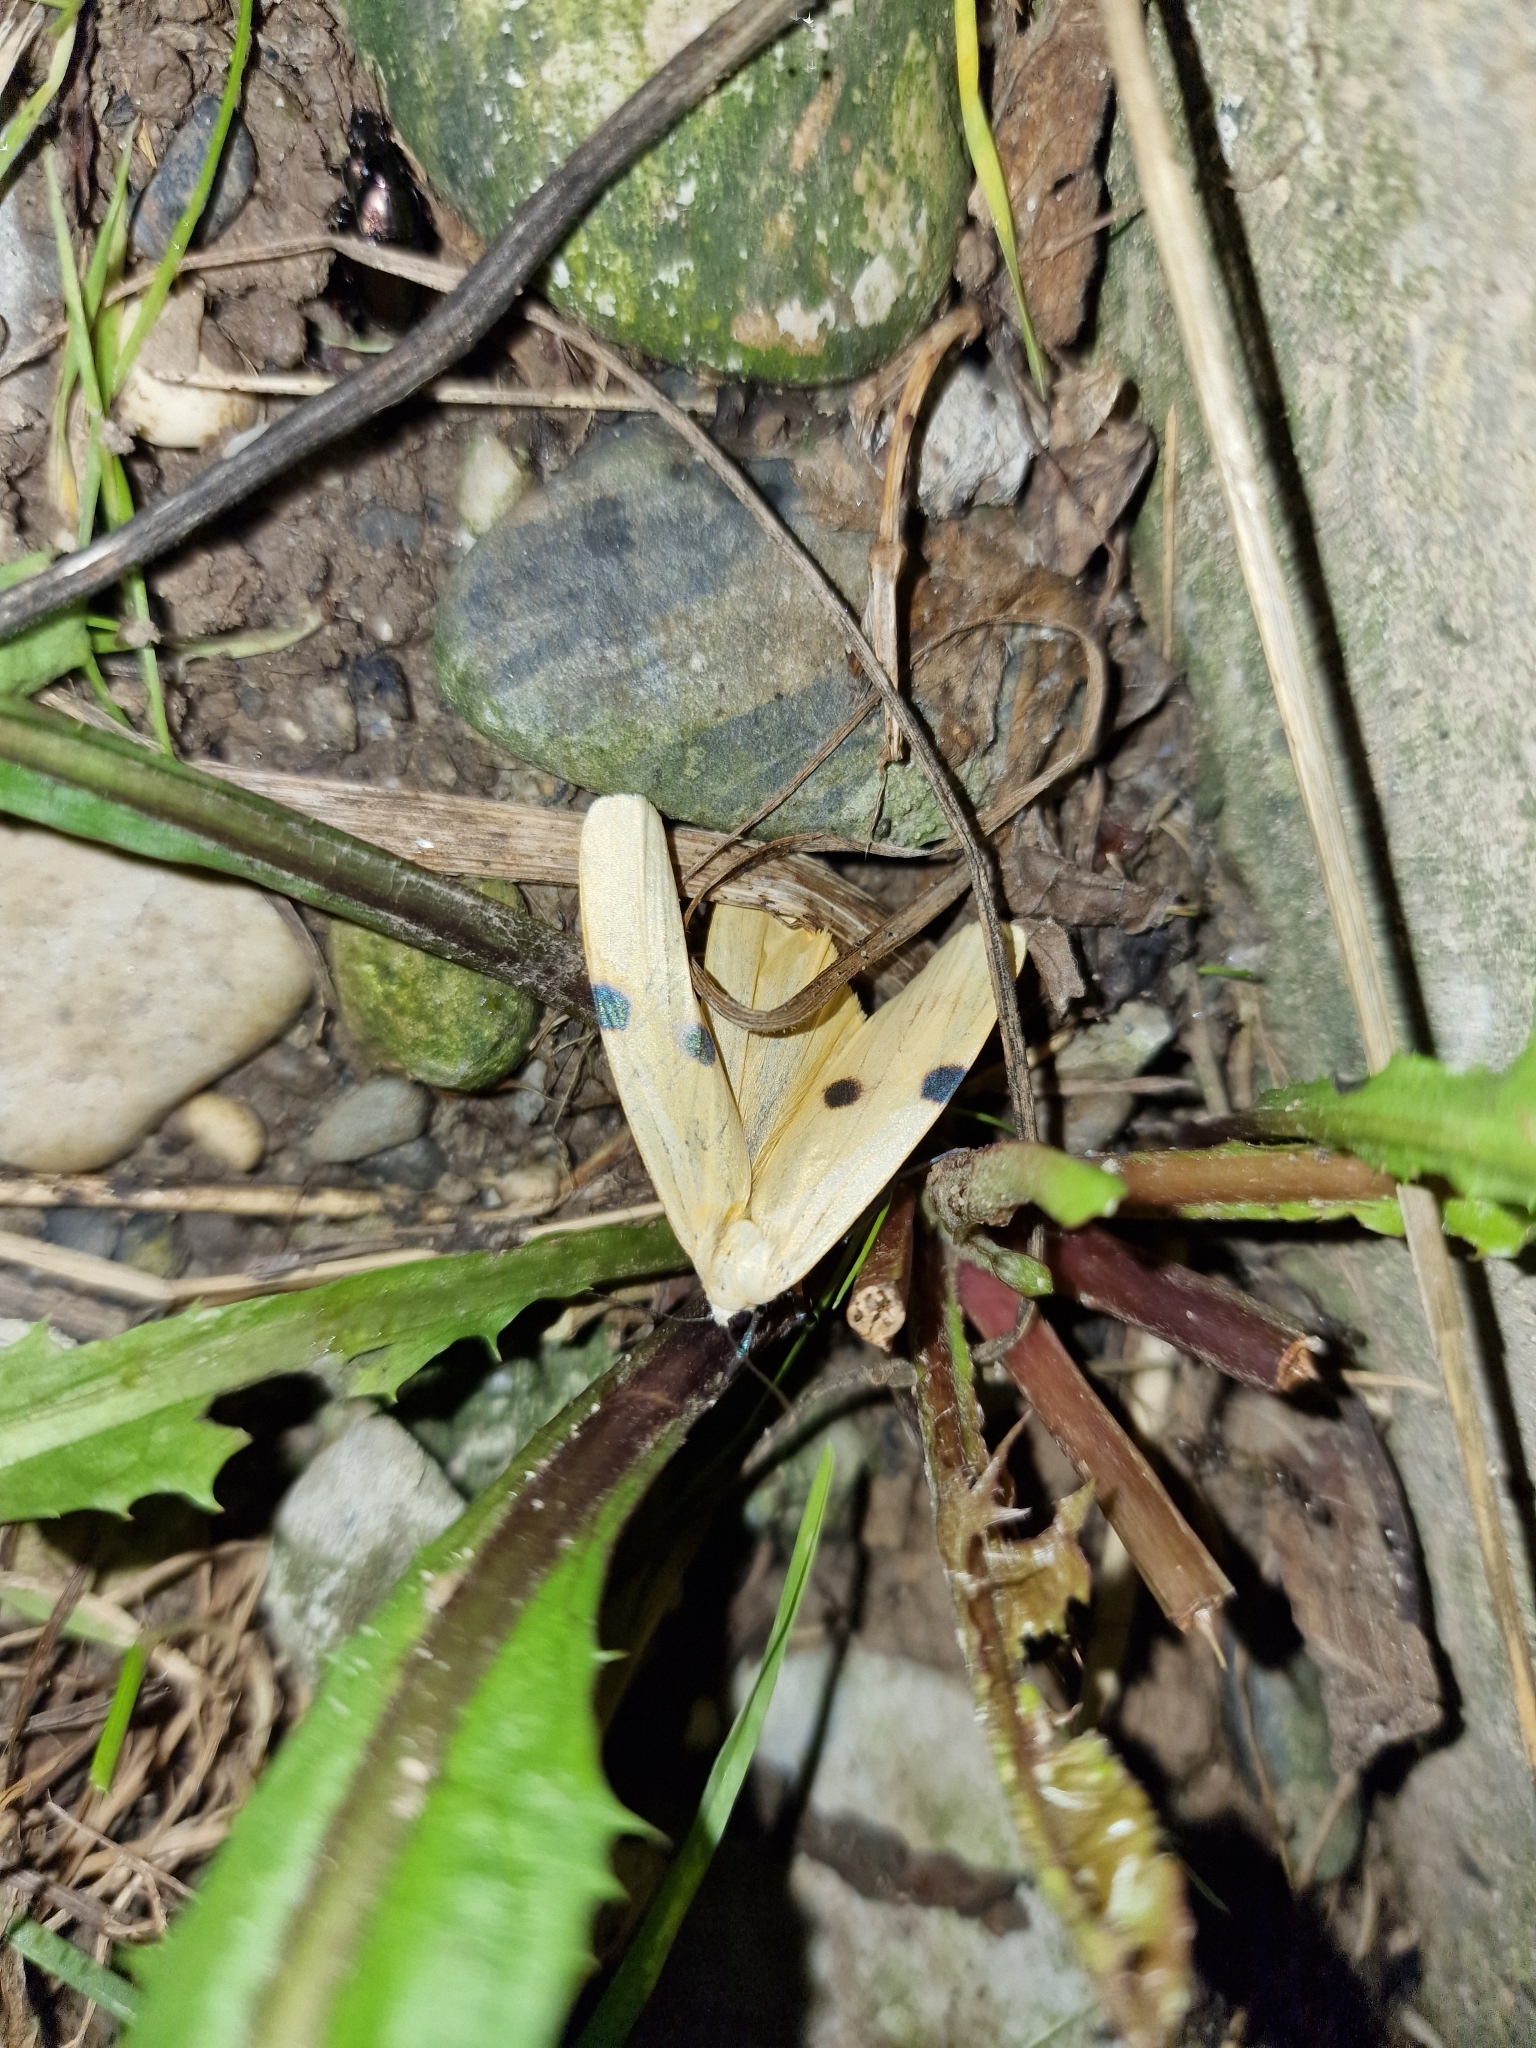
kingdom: Animalia
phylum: Arthropoda
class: Insecta
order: Lepidoptera
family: Erebidae
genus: Lithosia
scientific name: Lithosia quadra
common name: Four-spotted footman
